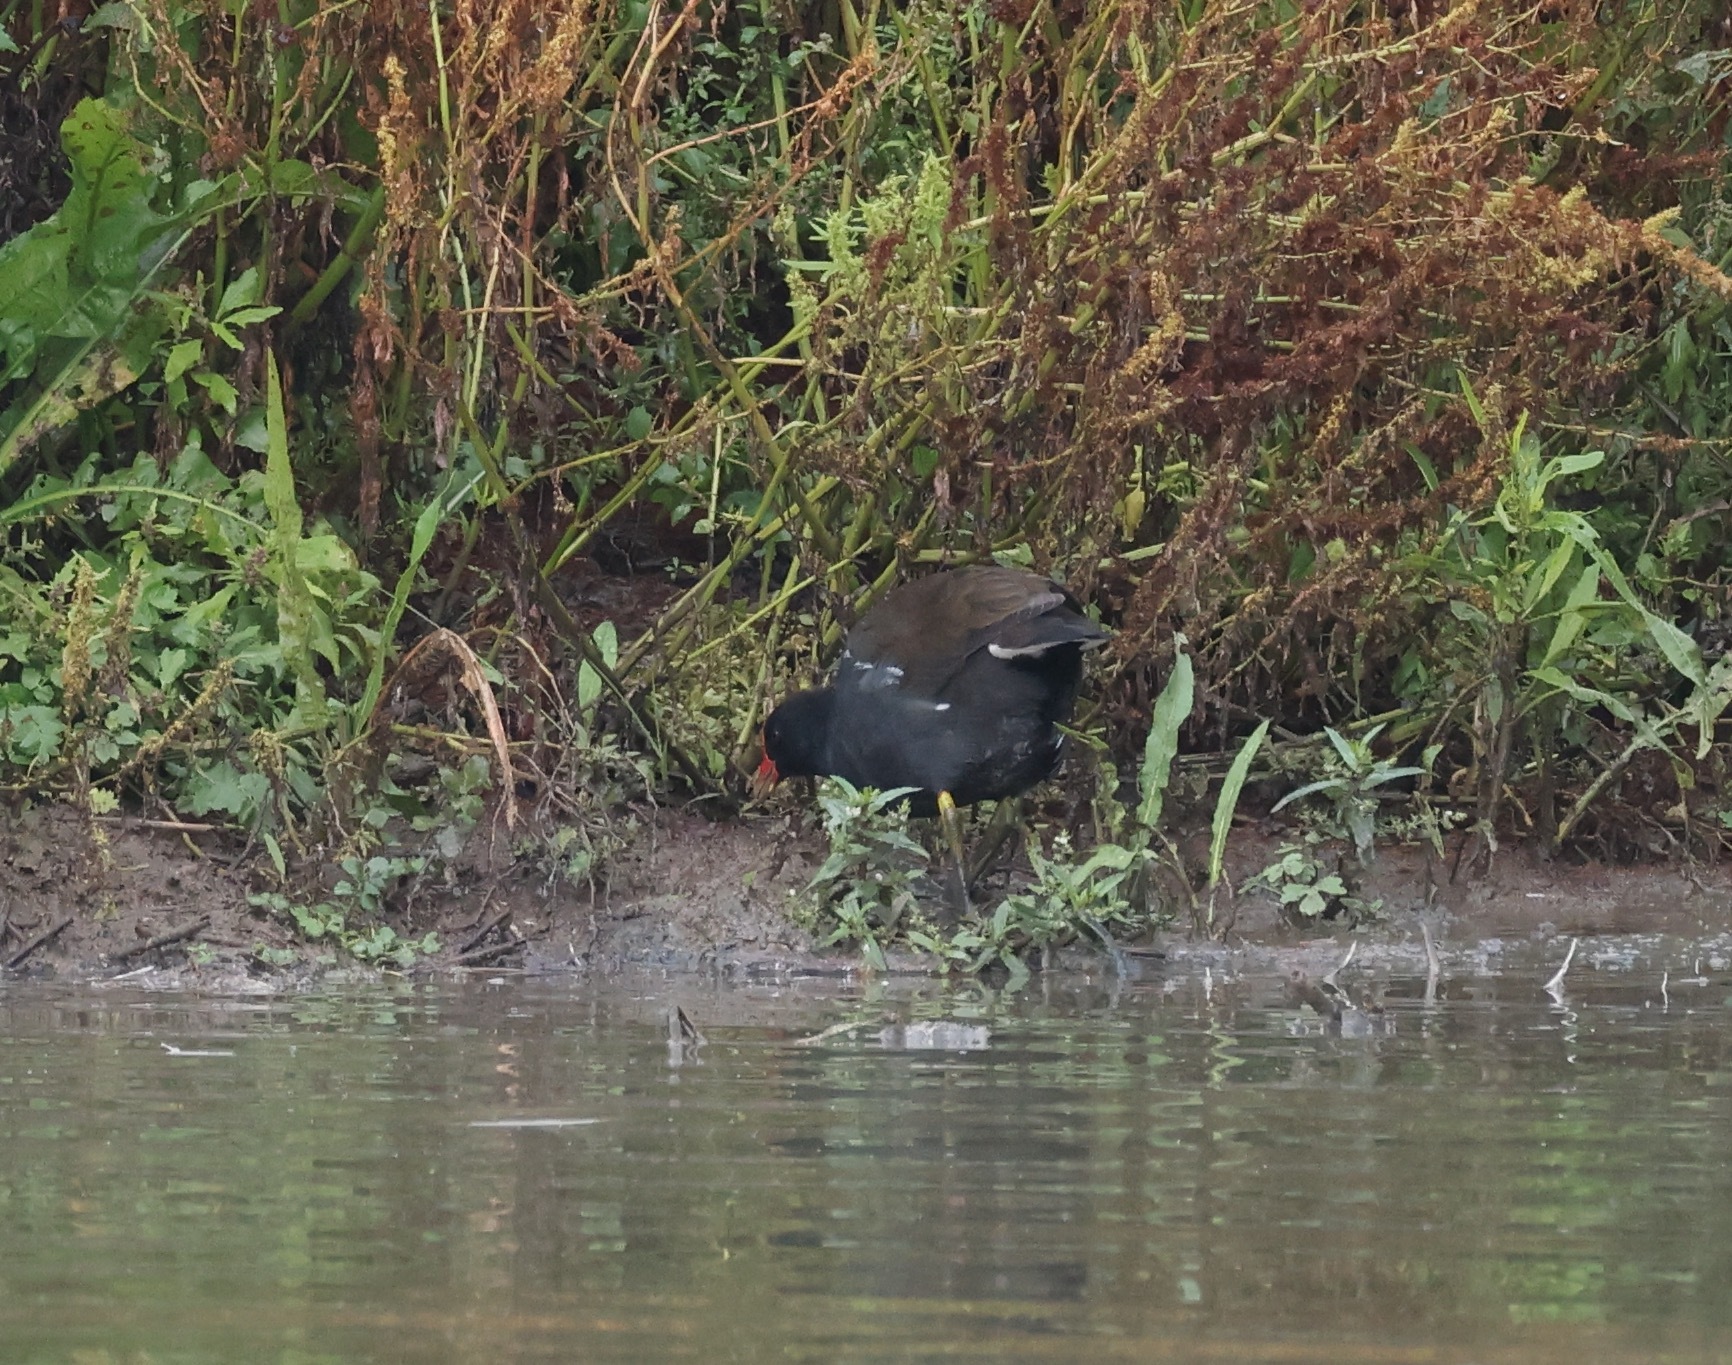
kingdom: Animalia
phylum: Chordata
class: Aves
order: Gruiformes
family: Rallidae
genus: Gallinula
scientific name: Gallinula chloropus
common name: Common moorhen
